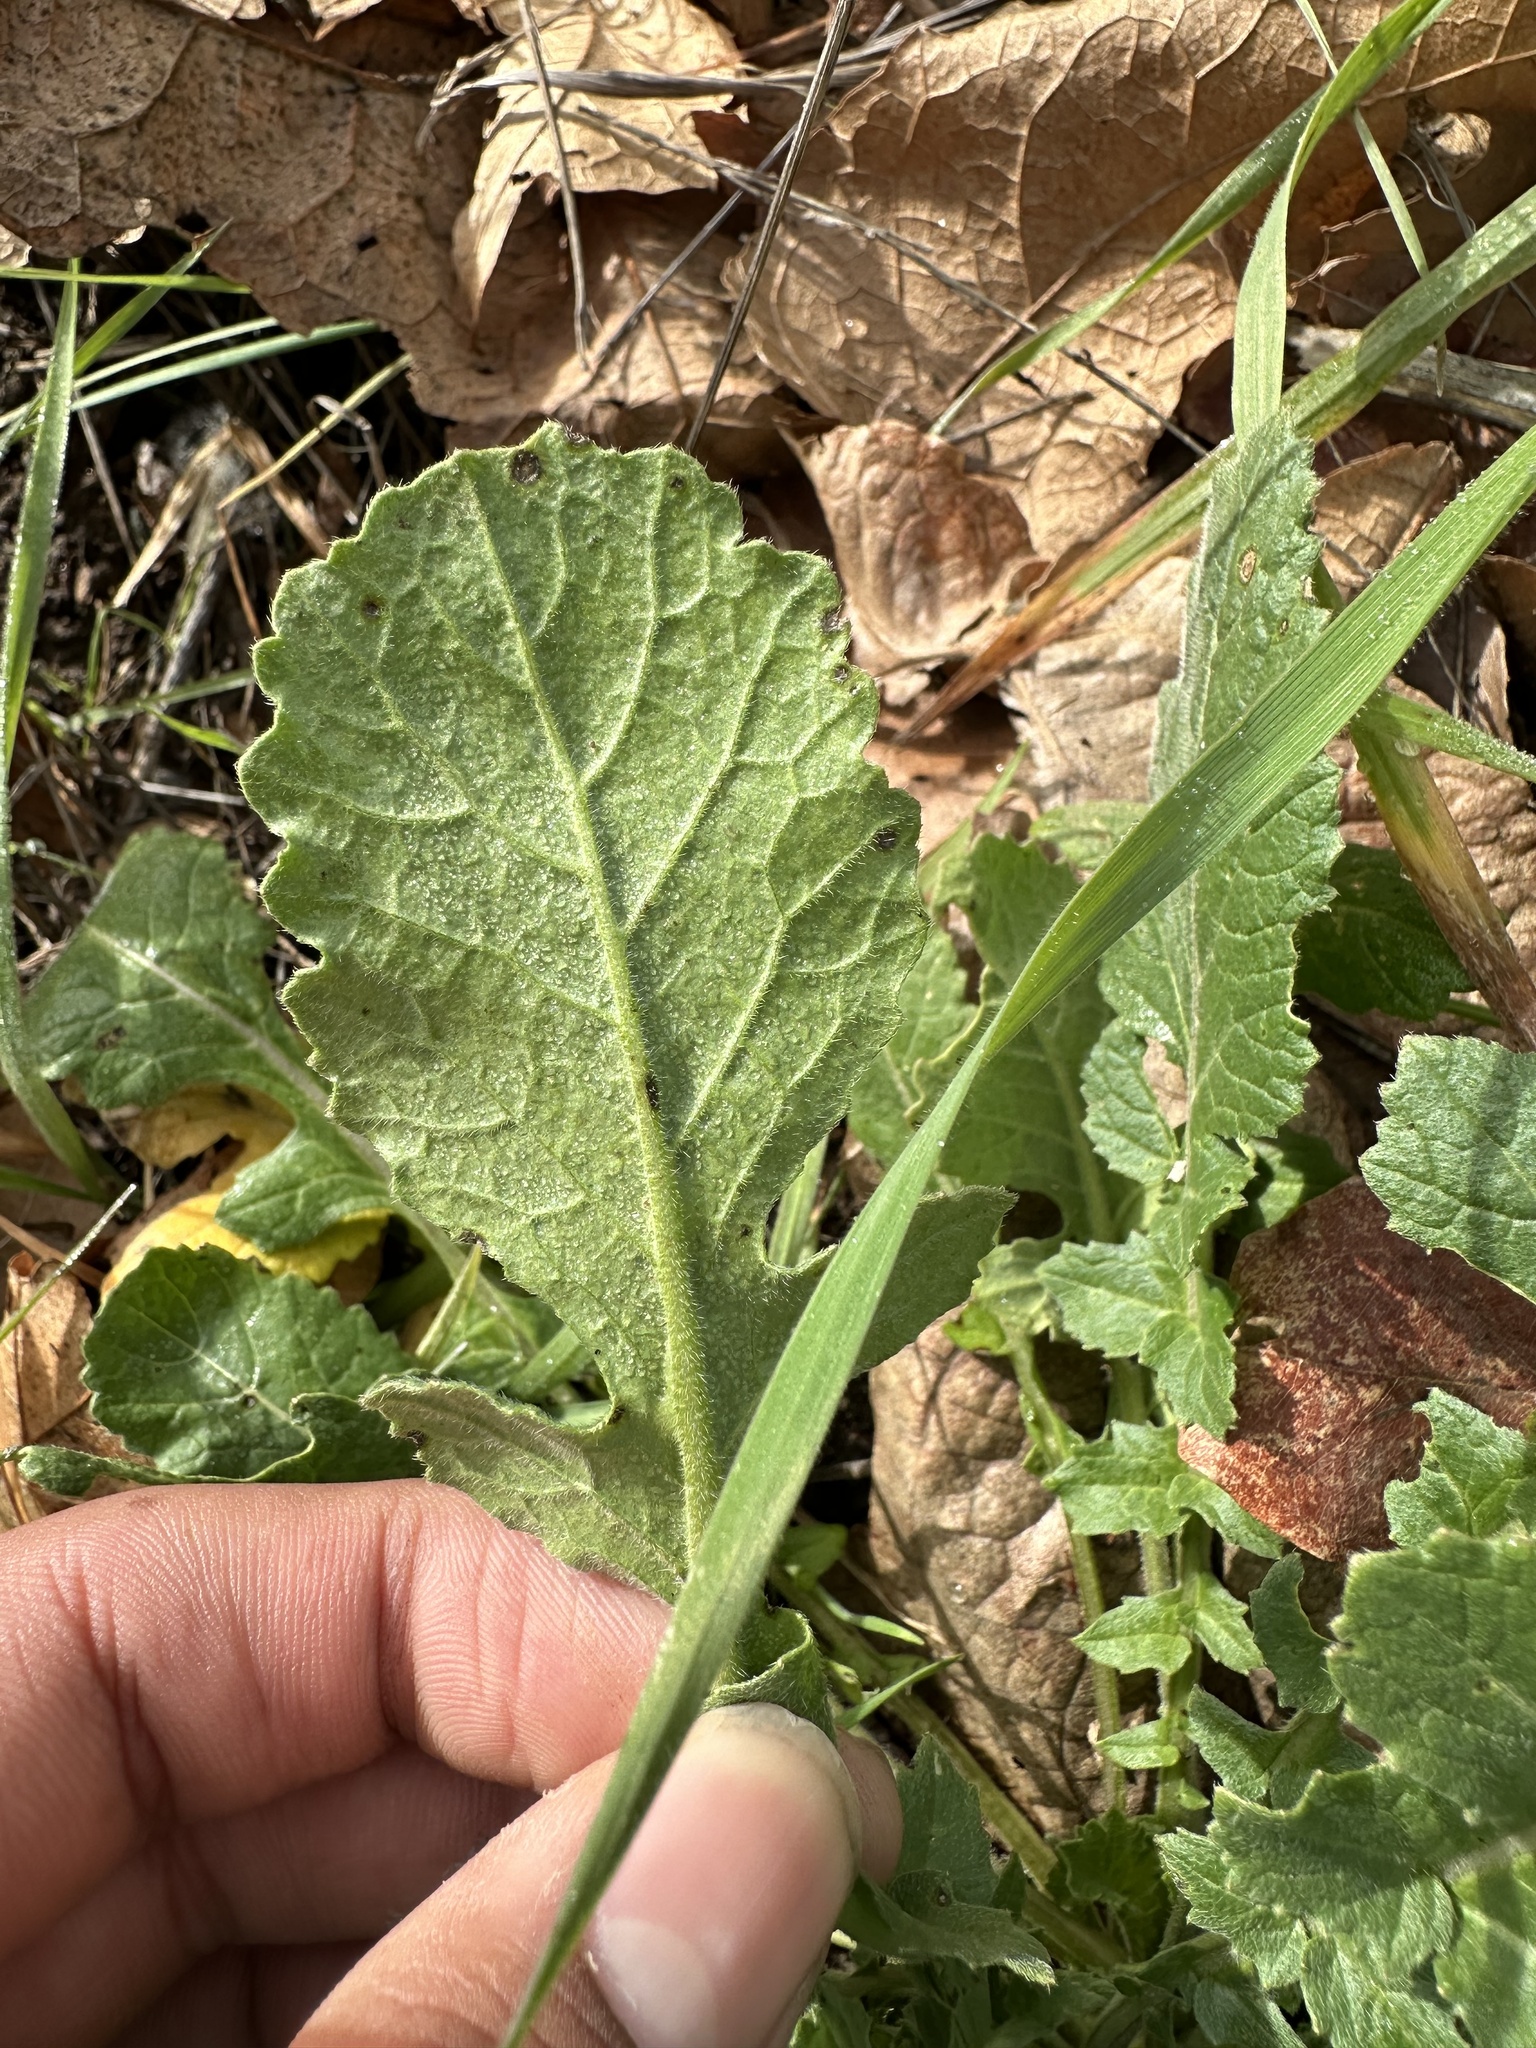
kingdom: Plantae
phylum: Tracheophyta
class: Magnoliopsida
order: Brassicales
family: Brassicaceae
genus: Hirschfeldia
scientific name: Hirschfeldia incana
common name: Hoary mustard
